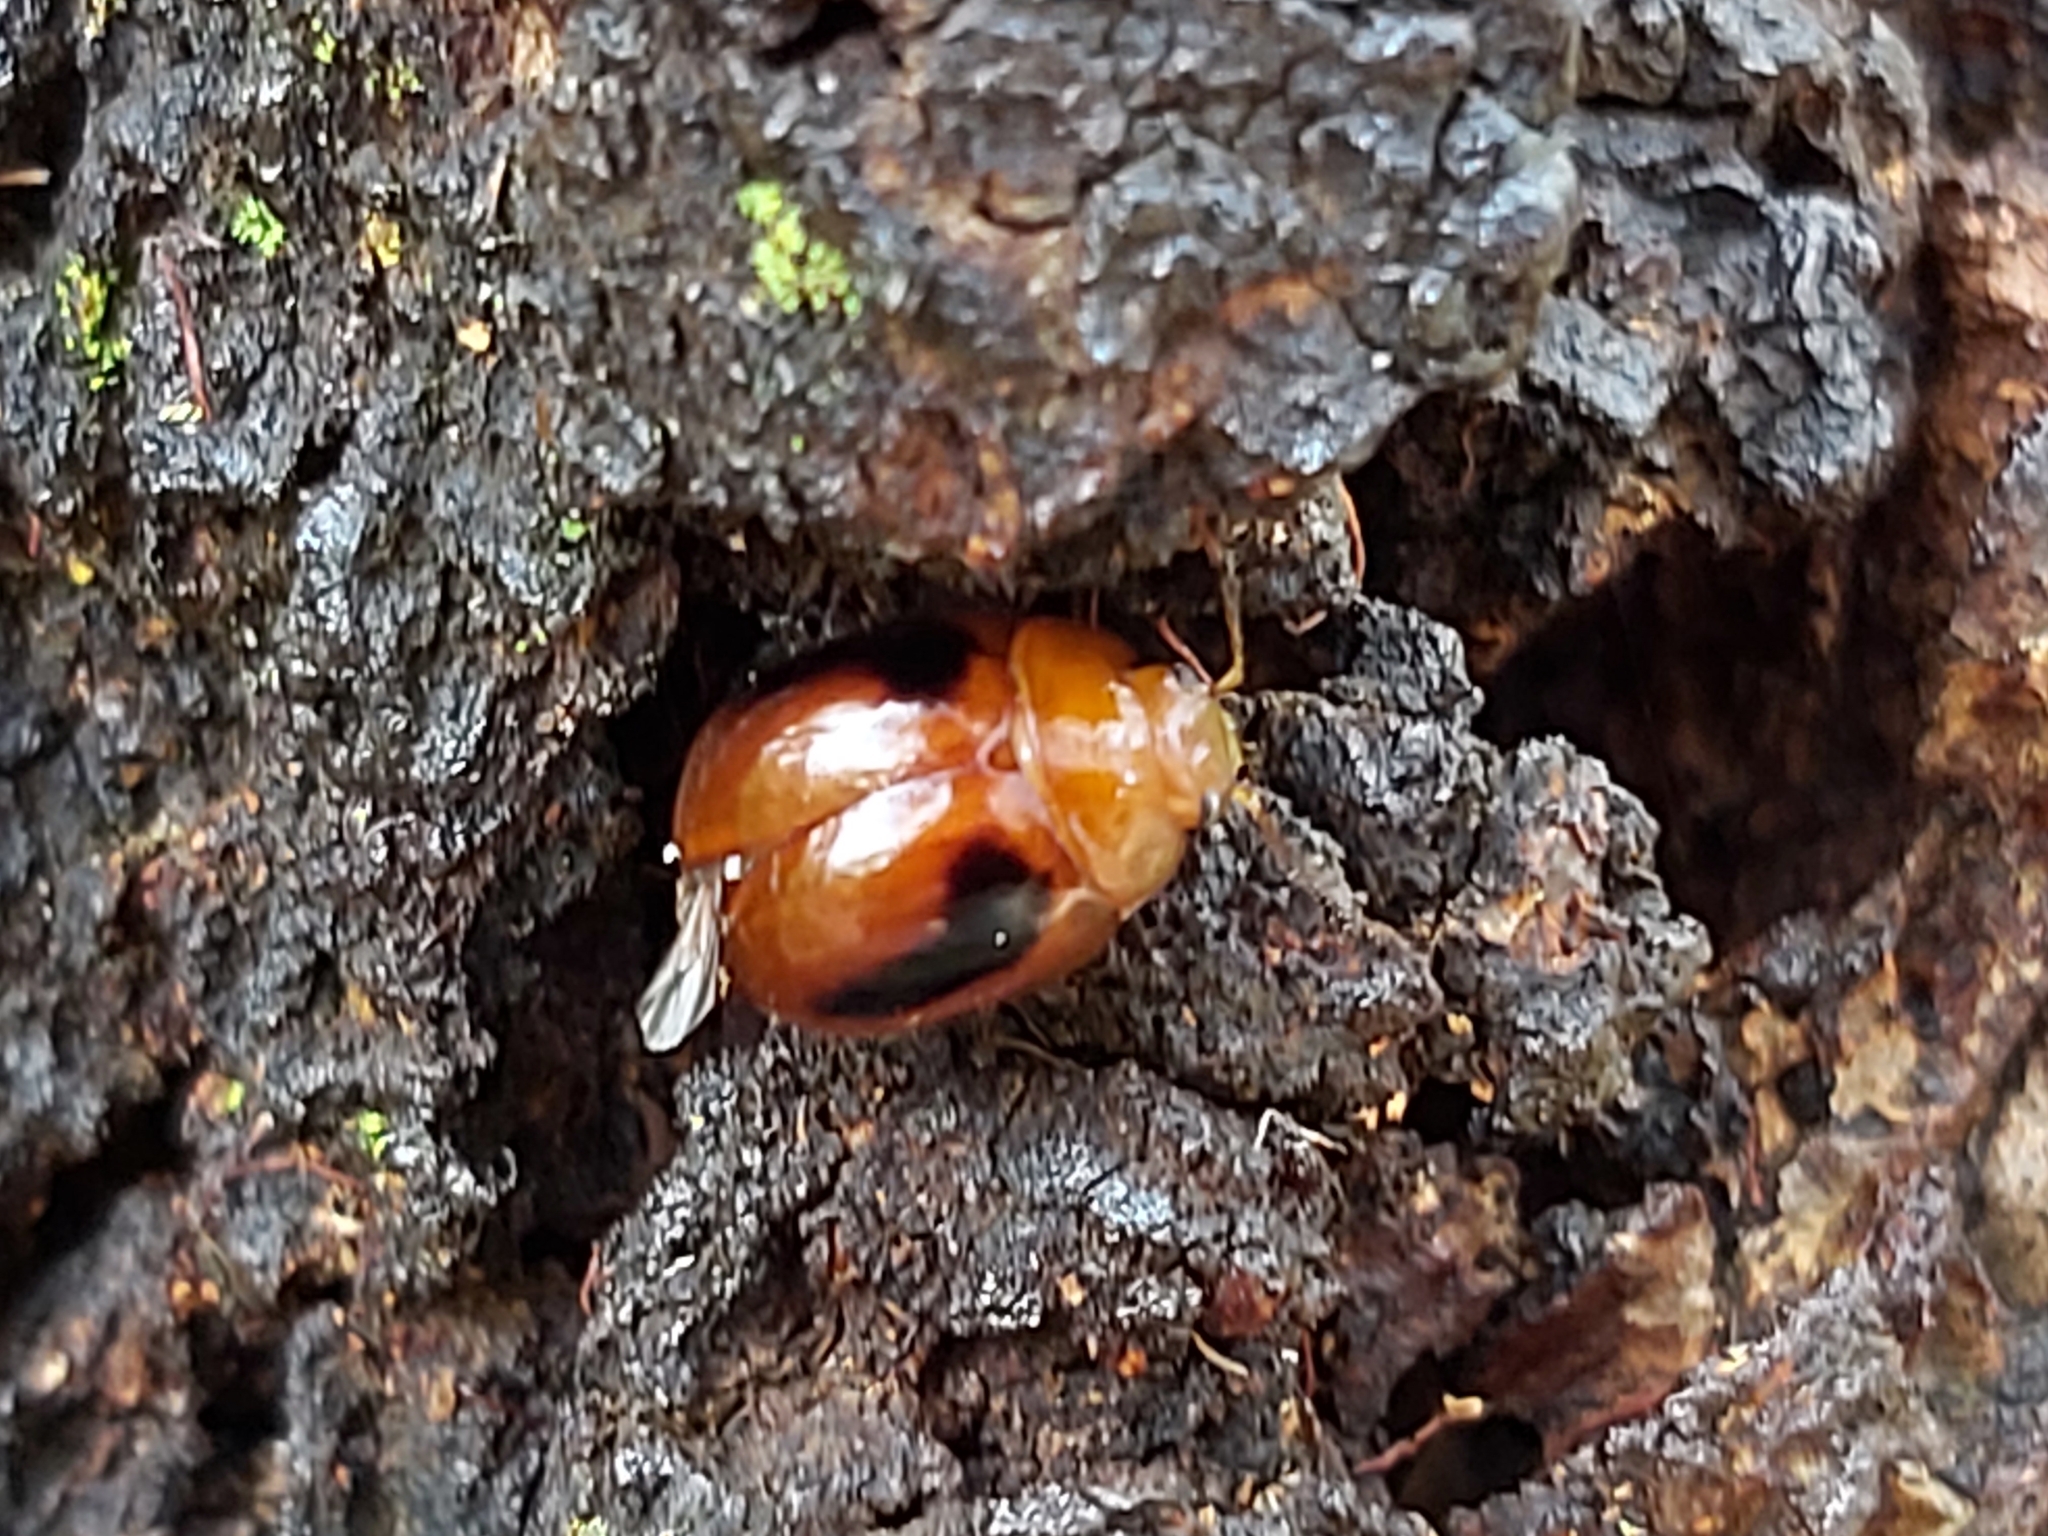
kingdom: Animalia
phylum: Arthropoda
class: Insecta
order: Coleoptera
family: Chrysomelidae
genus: Paropsisterna
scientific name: Paropsisterna
